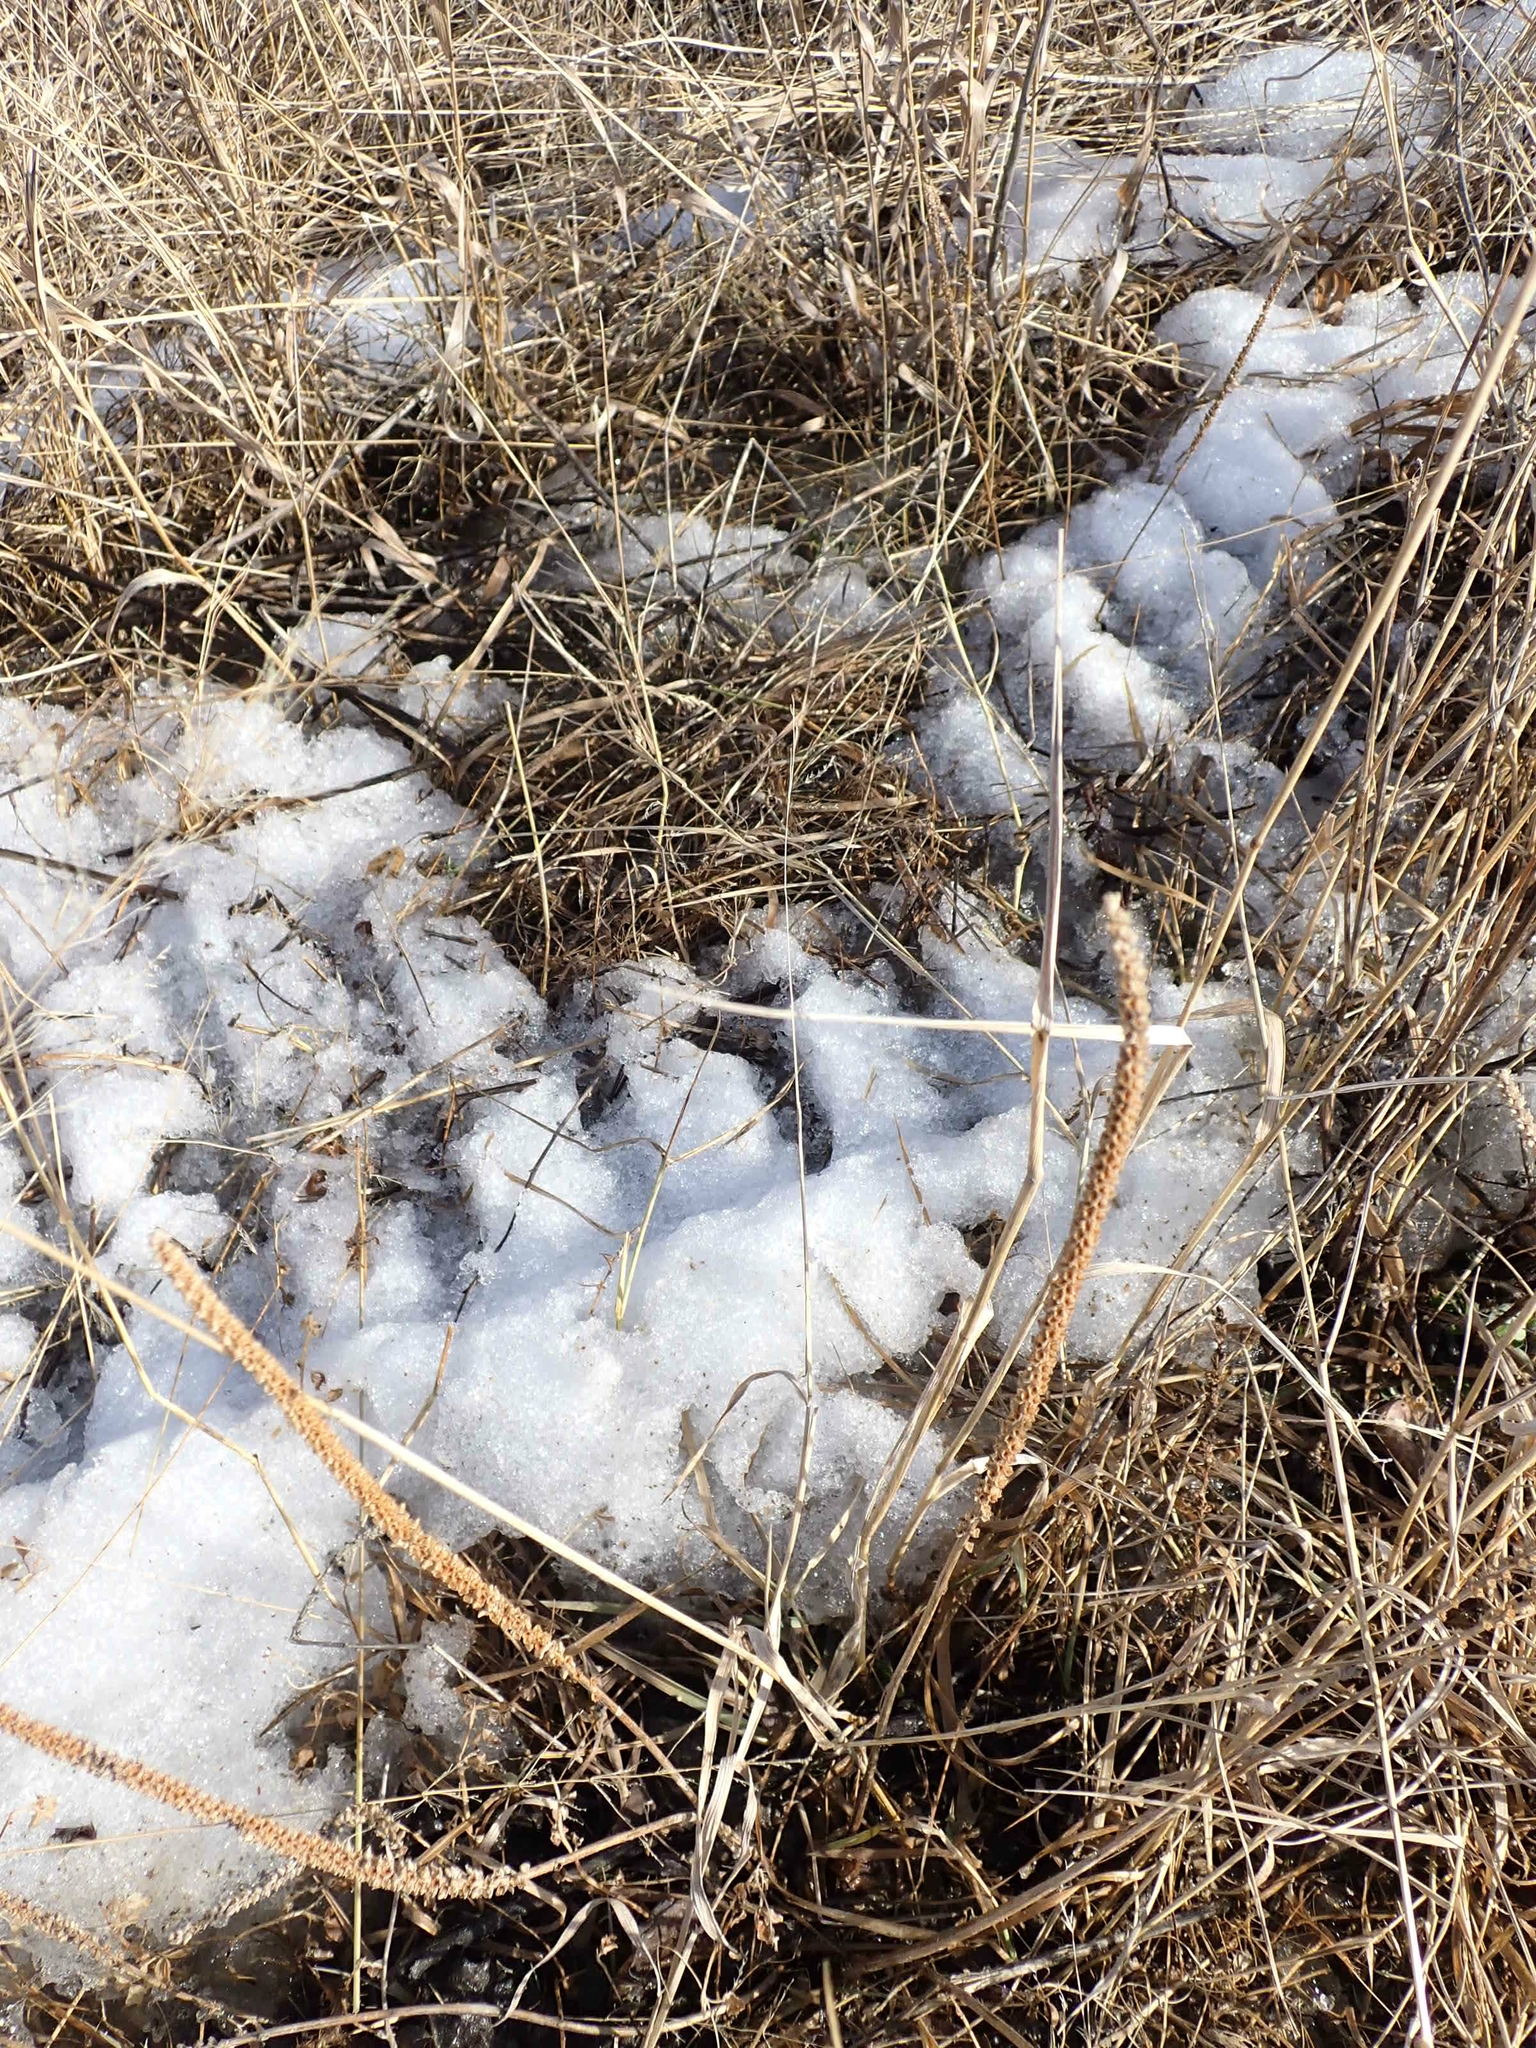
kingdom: Plantae
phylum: Tracheophyta
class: Magnoliopsida
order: Lamiales
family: Plantaginaceae
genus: Plantago
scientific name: Plantago major
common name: Common plantain
